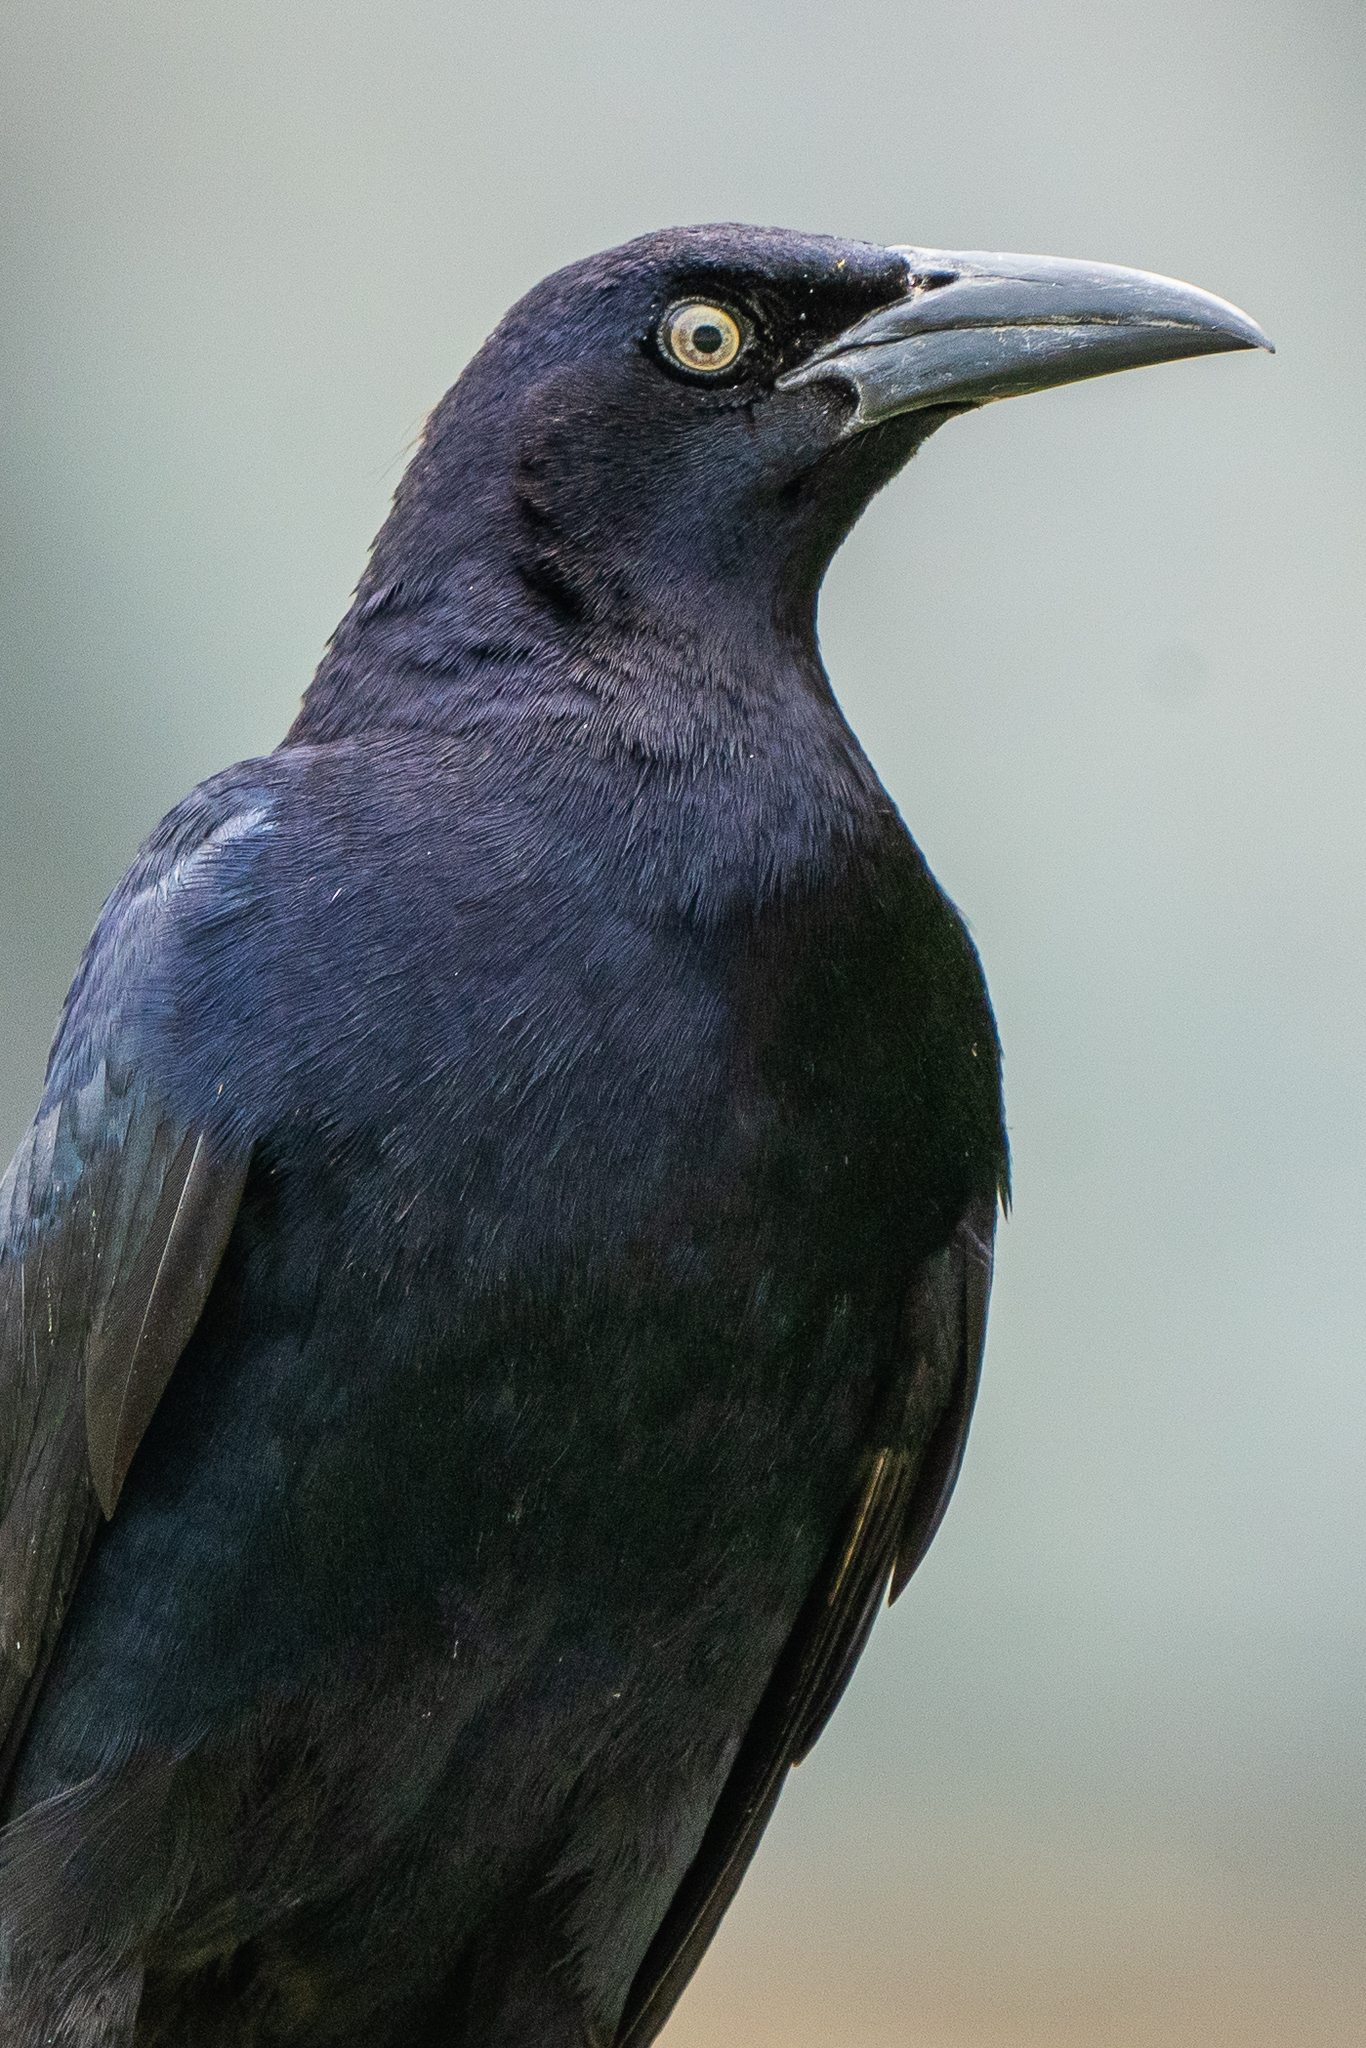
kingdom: Animalia
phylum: Chordata
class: Aves
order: Passeriformes
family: Icteridae
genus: Quiscalus
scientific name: Quiscalus mexicanus
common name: Great-tailed grackle
